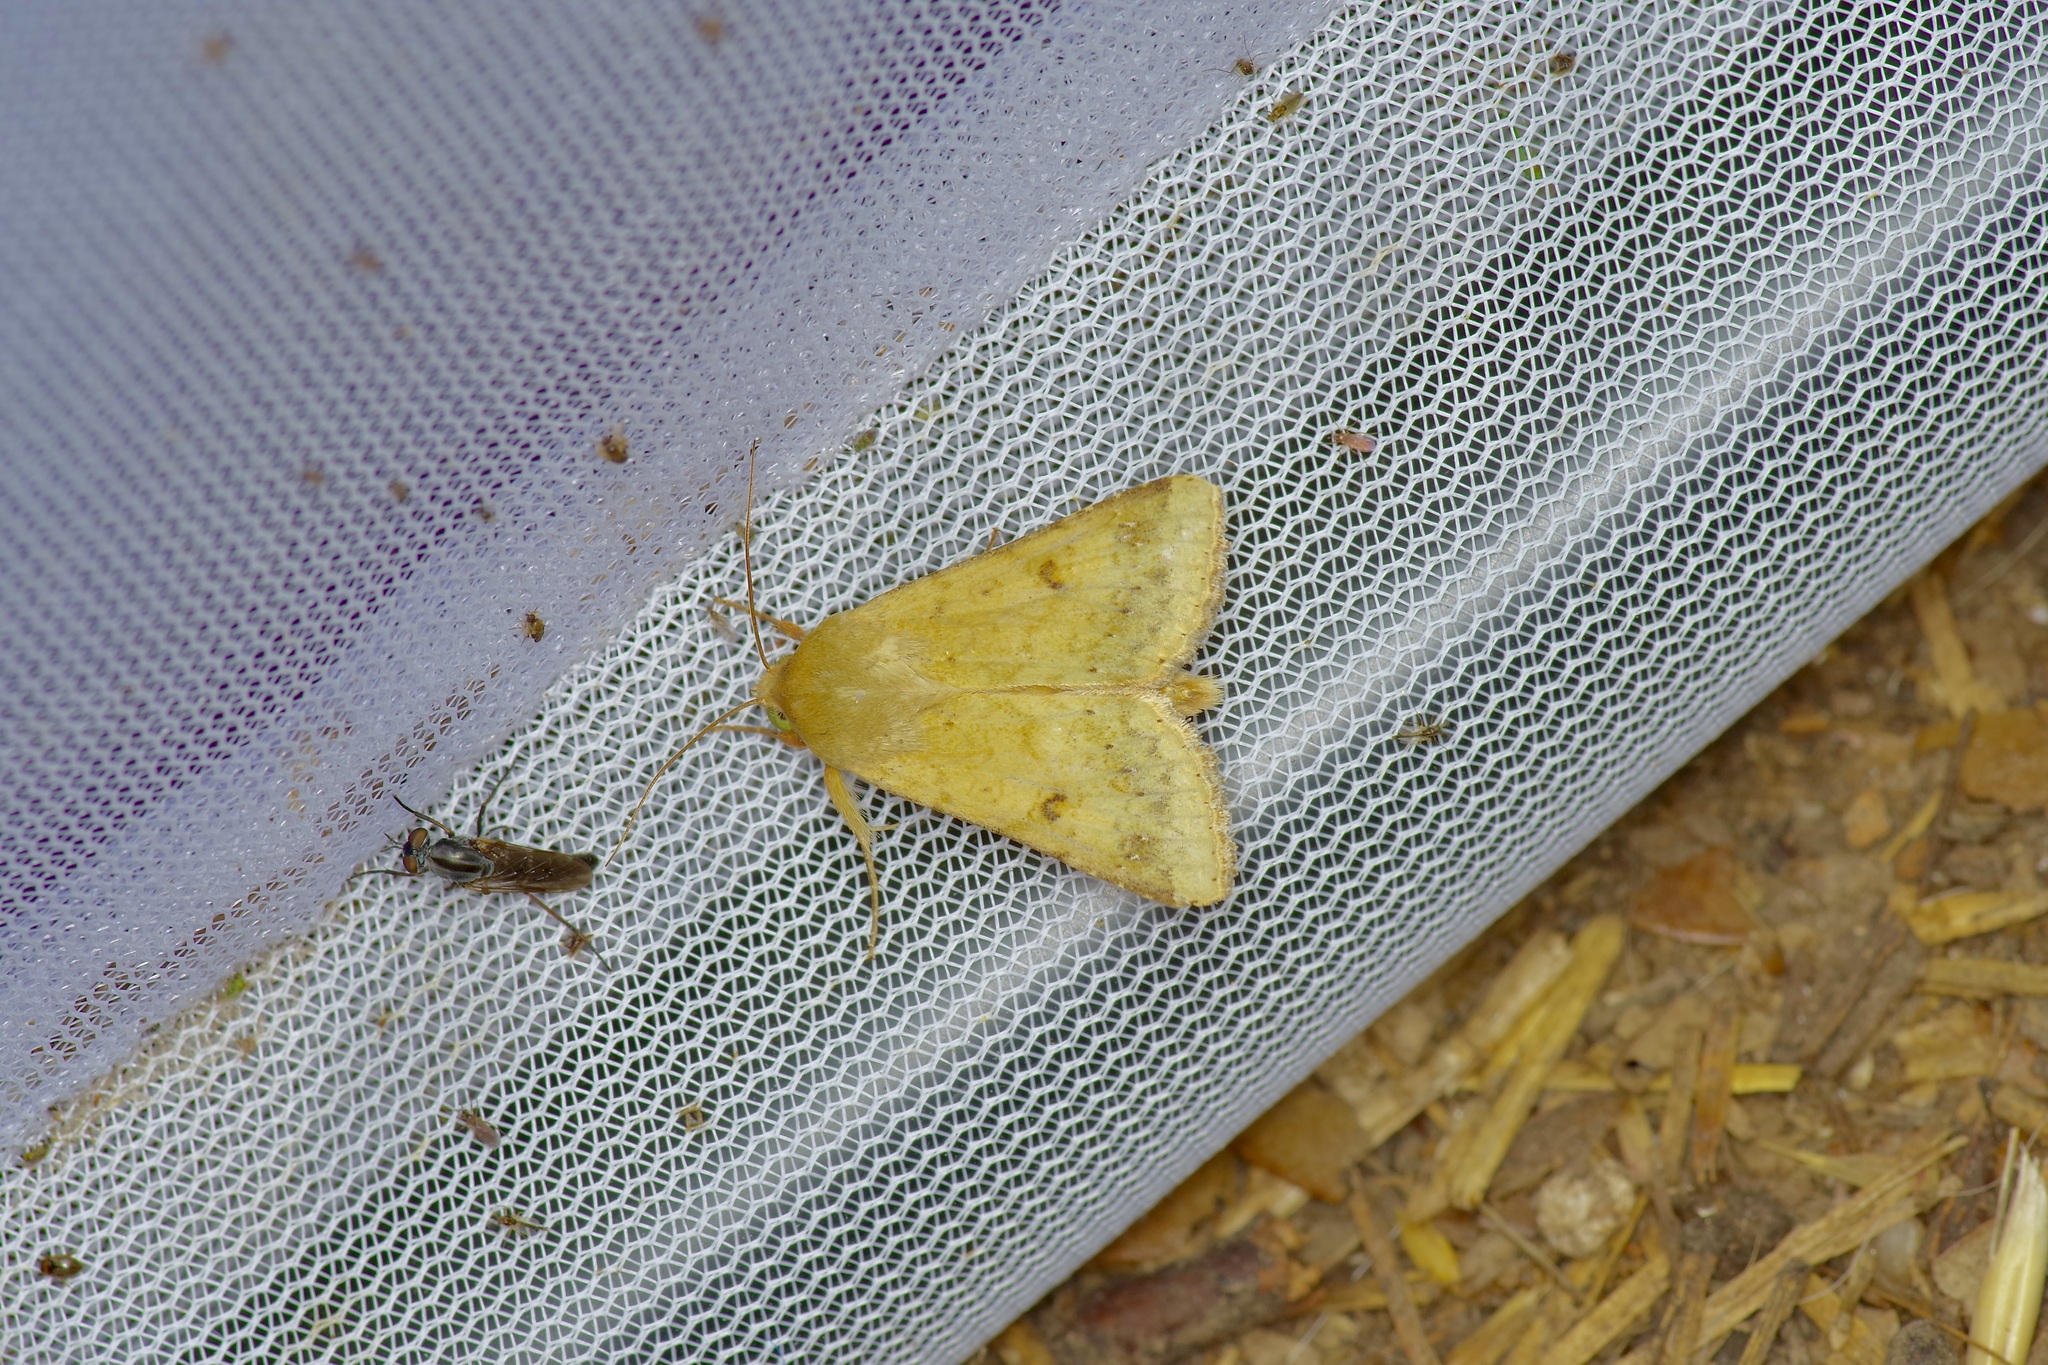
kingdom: Animalia
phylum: Arthropoda
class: Insecta
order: Lepidoptera
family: Noctuidae
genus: Helicoverpa
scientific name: Helicoverpa zea
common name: Bollworm
